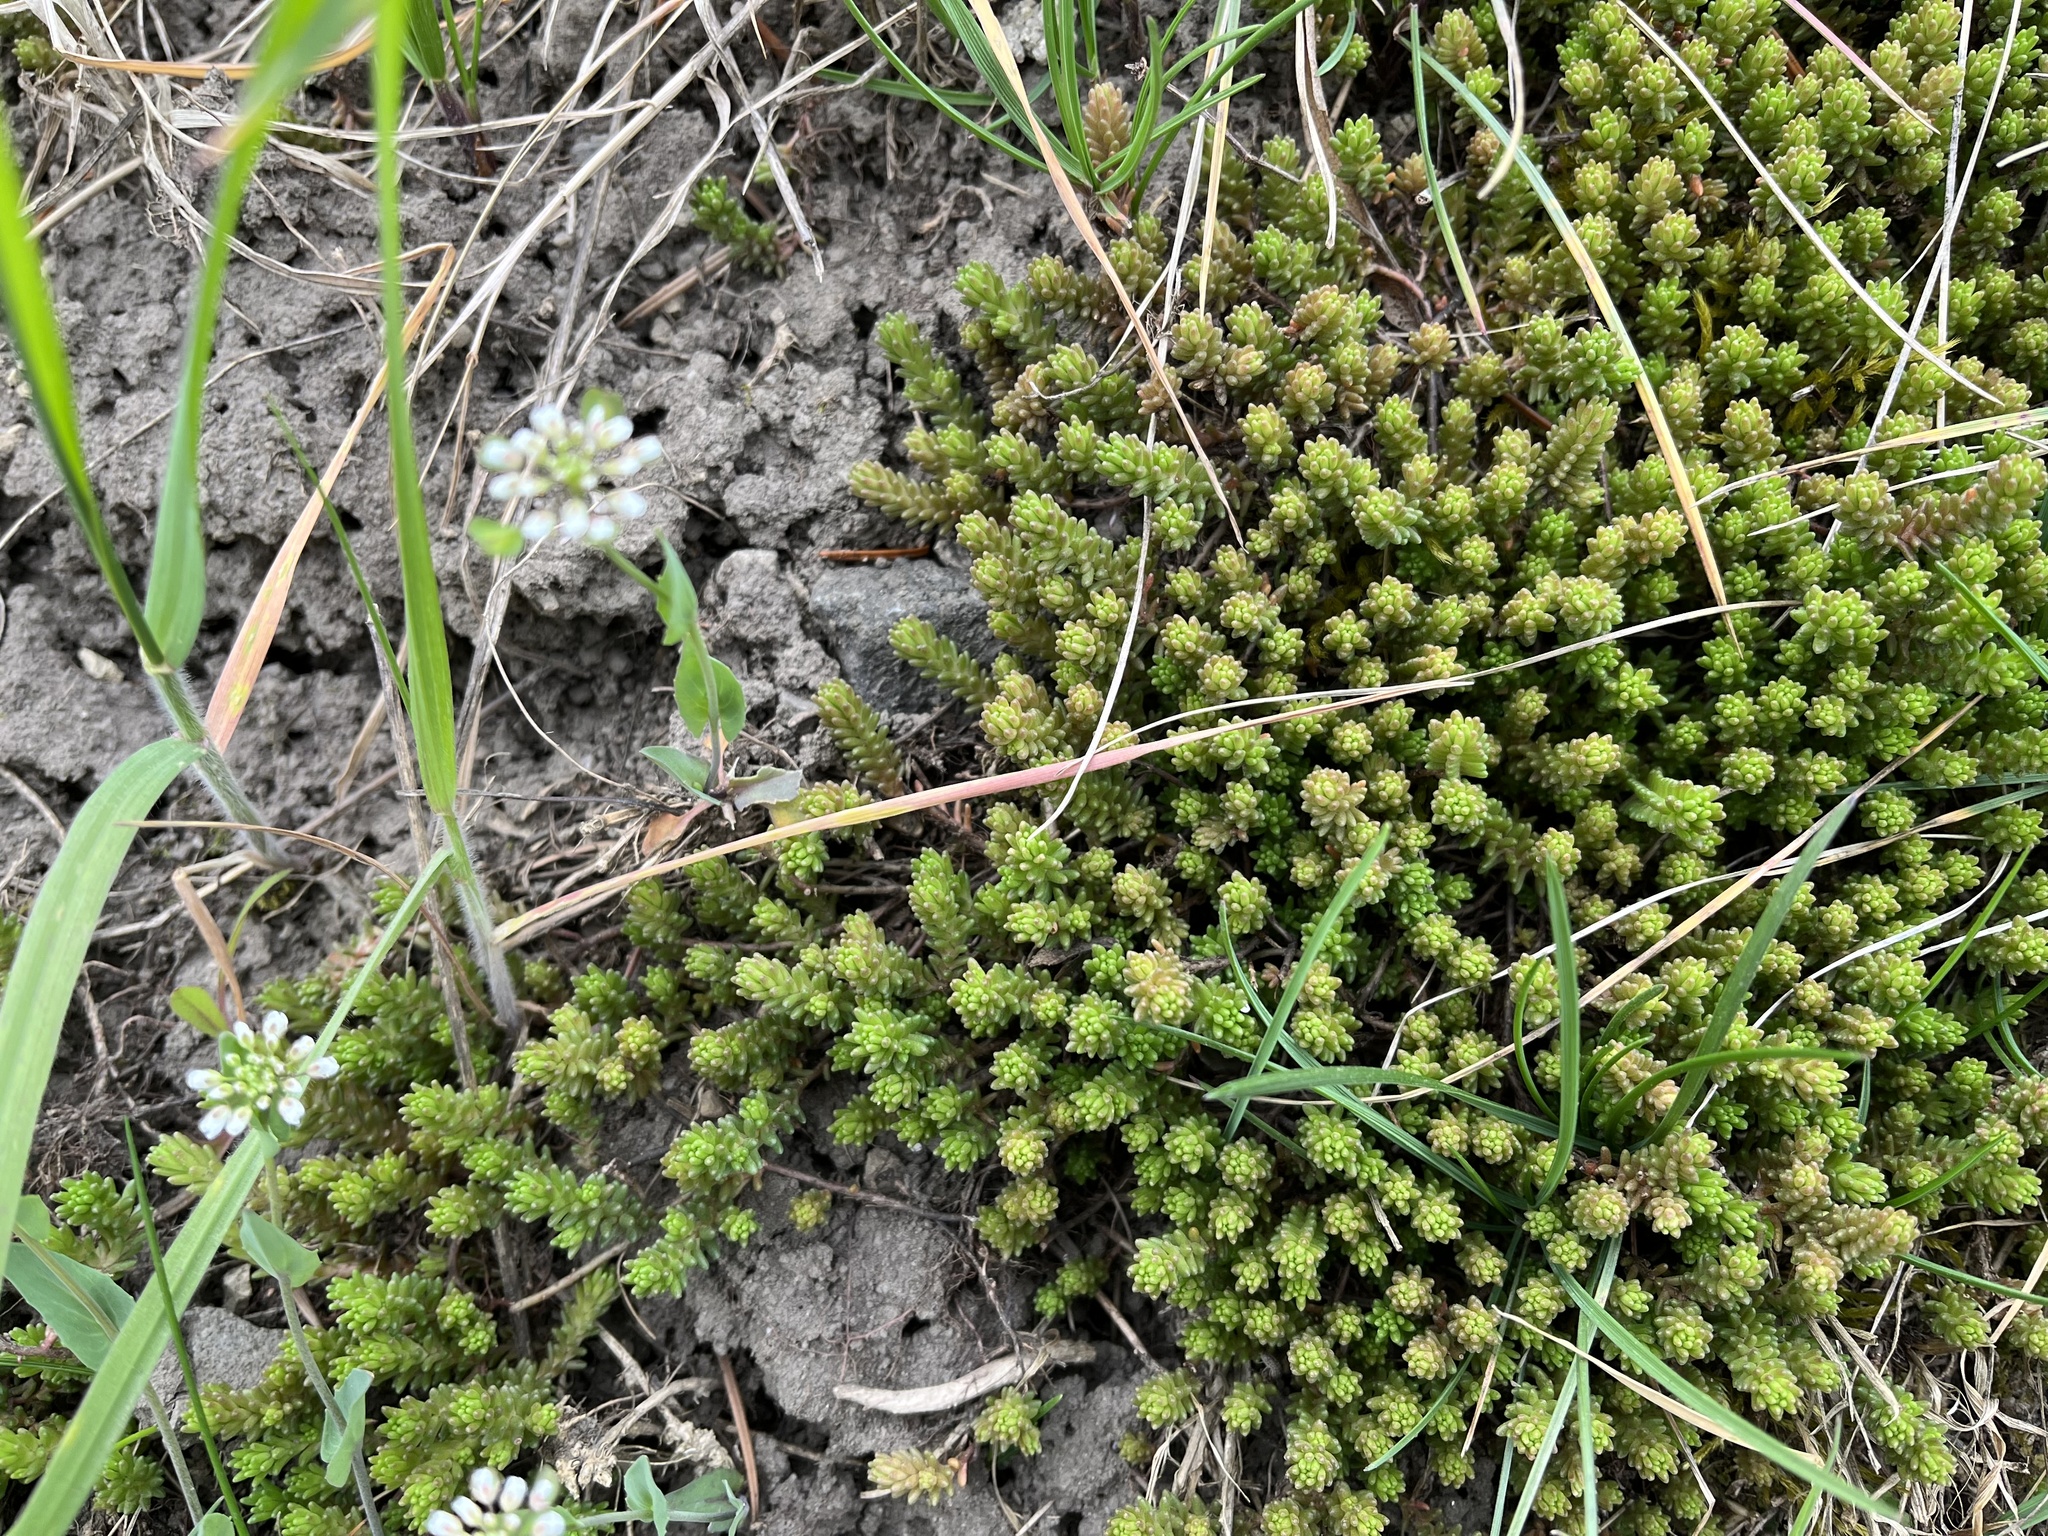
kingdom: Plantae
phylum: Tracheophyta
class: Magnoliopsida
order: Saxifragales
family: Crassulaceae
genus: Sedum
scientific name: Sedum sexangulare
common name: Tasteless stonecrop
